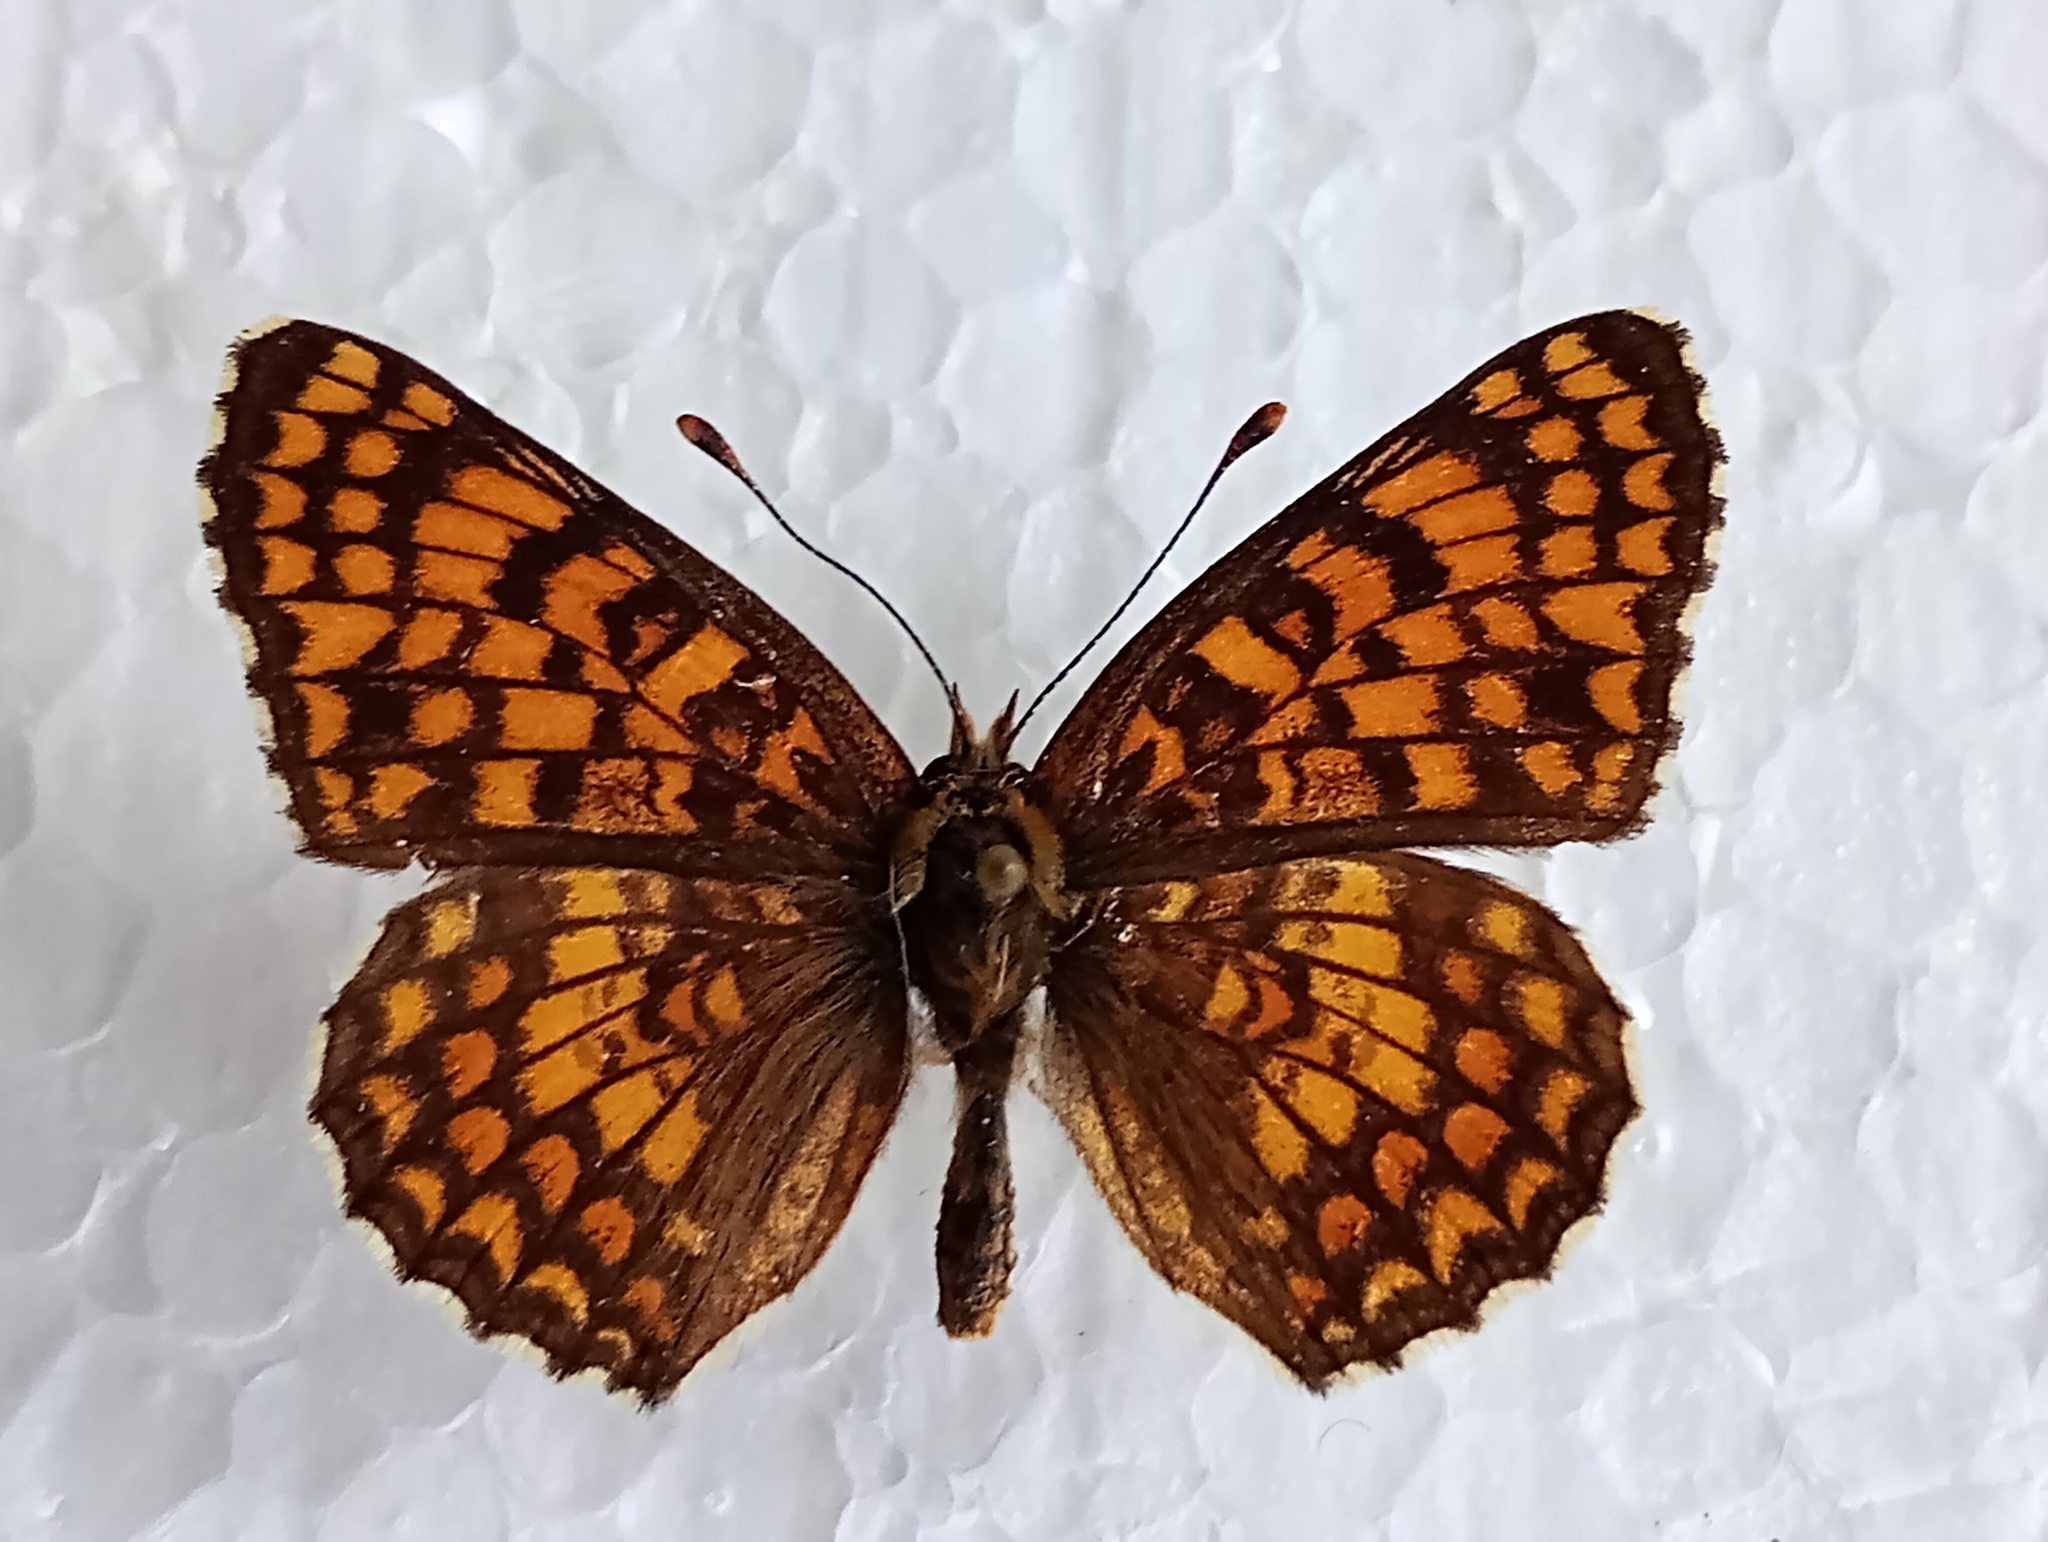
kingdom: Animalia
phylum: Arthropoda
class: Insecta
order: Lepidoptera
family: Nymphalidae
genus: Melitaea
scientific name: Melitaea phoebe
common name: Knapweed fritillary
